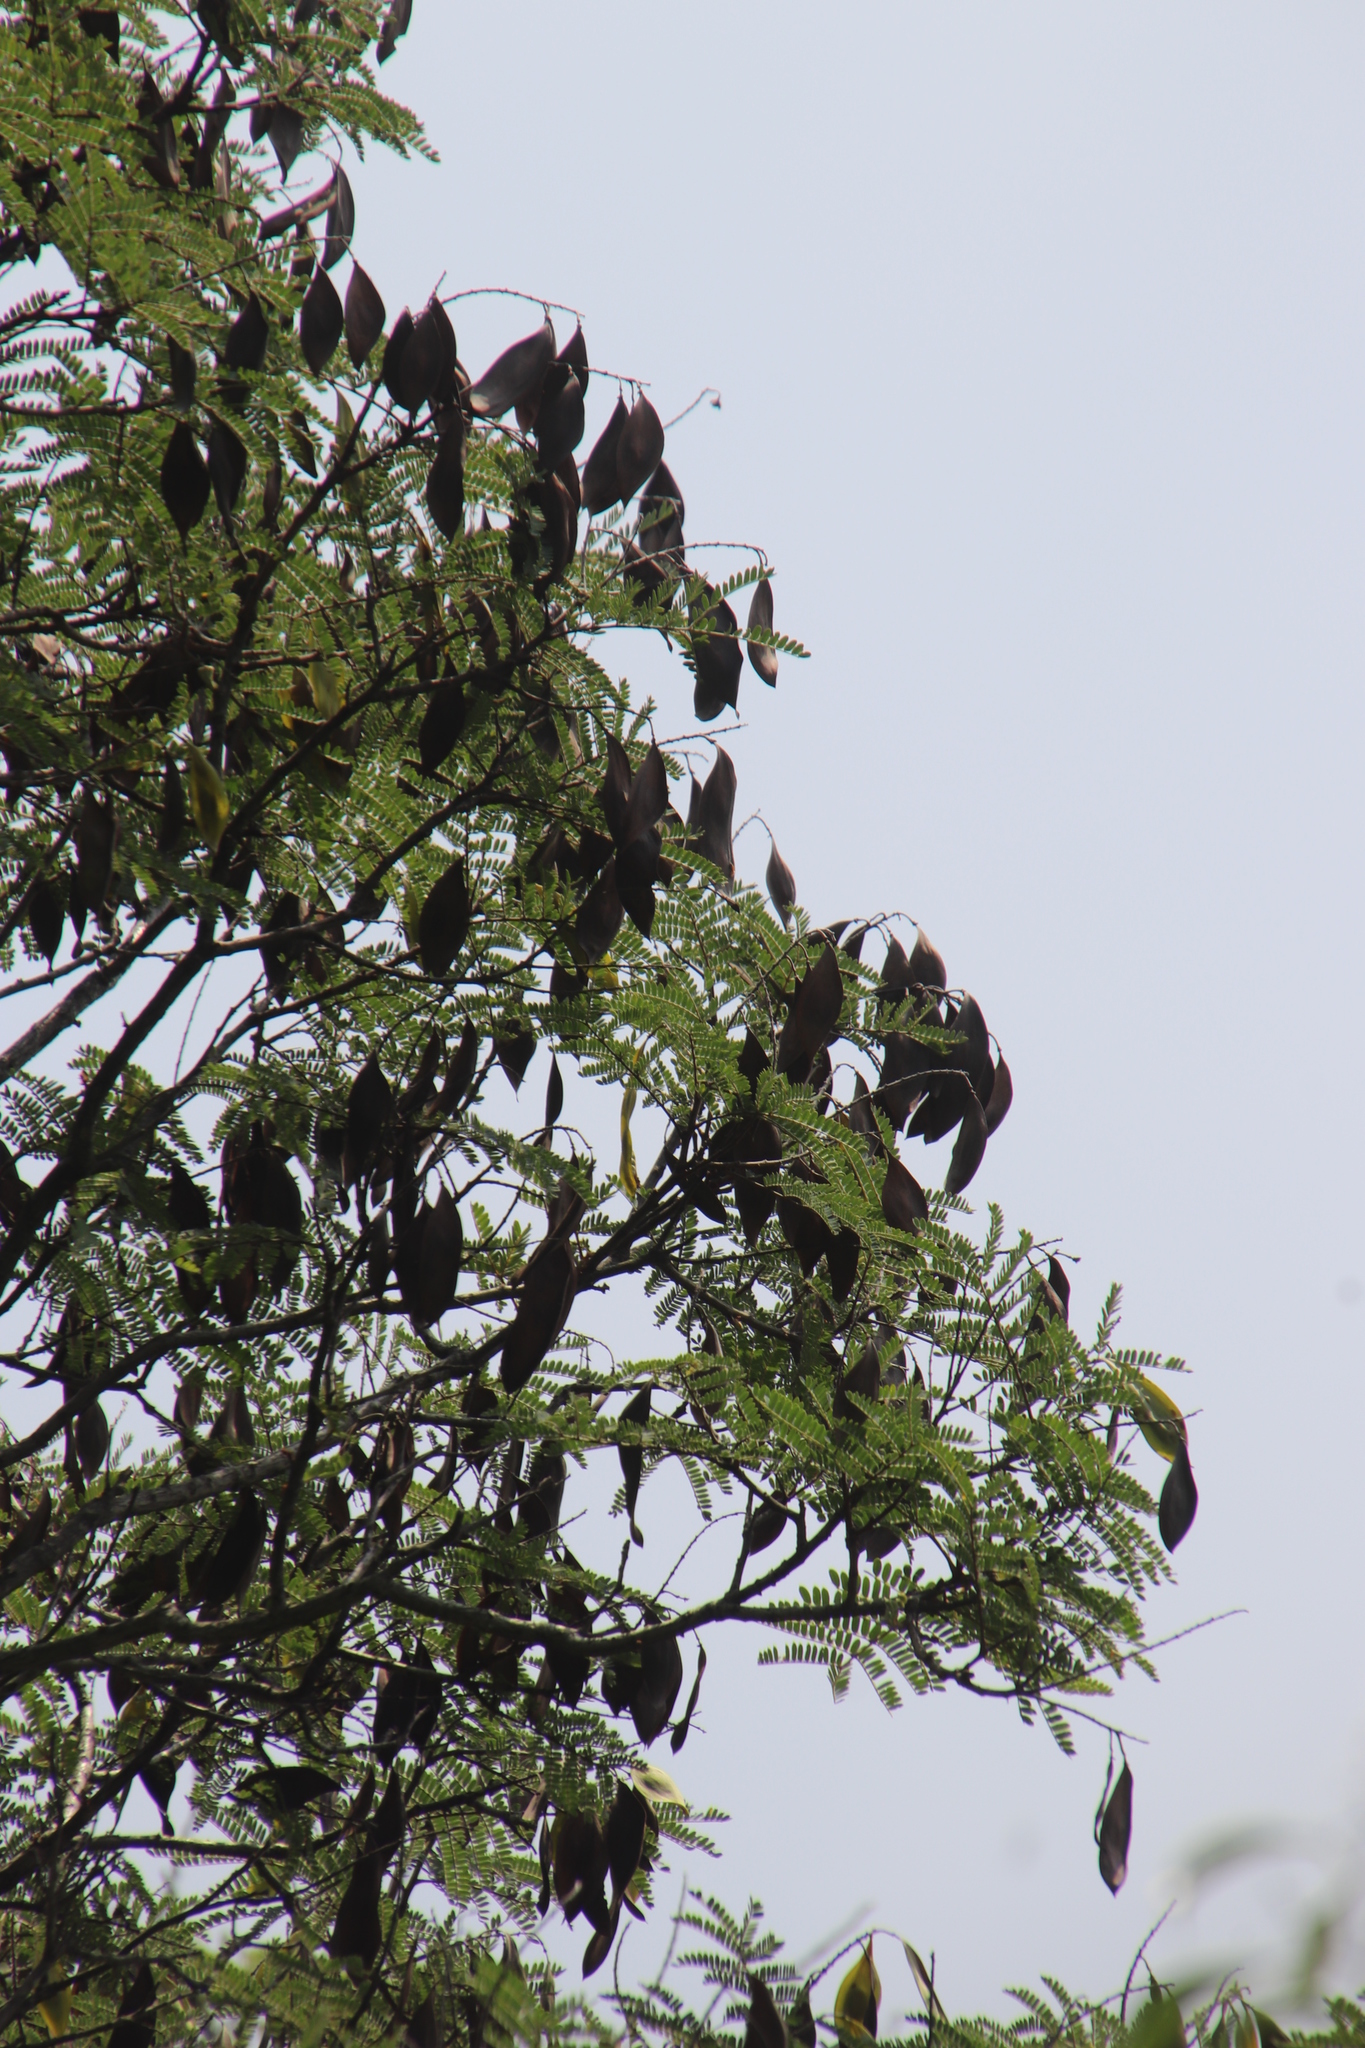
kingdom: Plantae
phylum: Tracheophyta
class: Magnoliopsida
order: Fabales
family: Fabaceae
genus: Peltophorum
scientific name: Peltophorum africanum
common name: African black wattle
